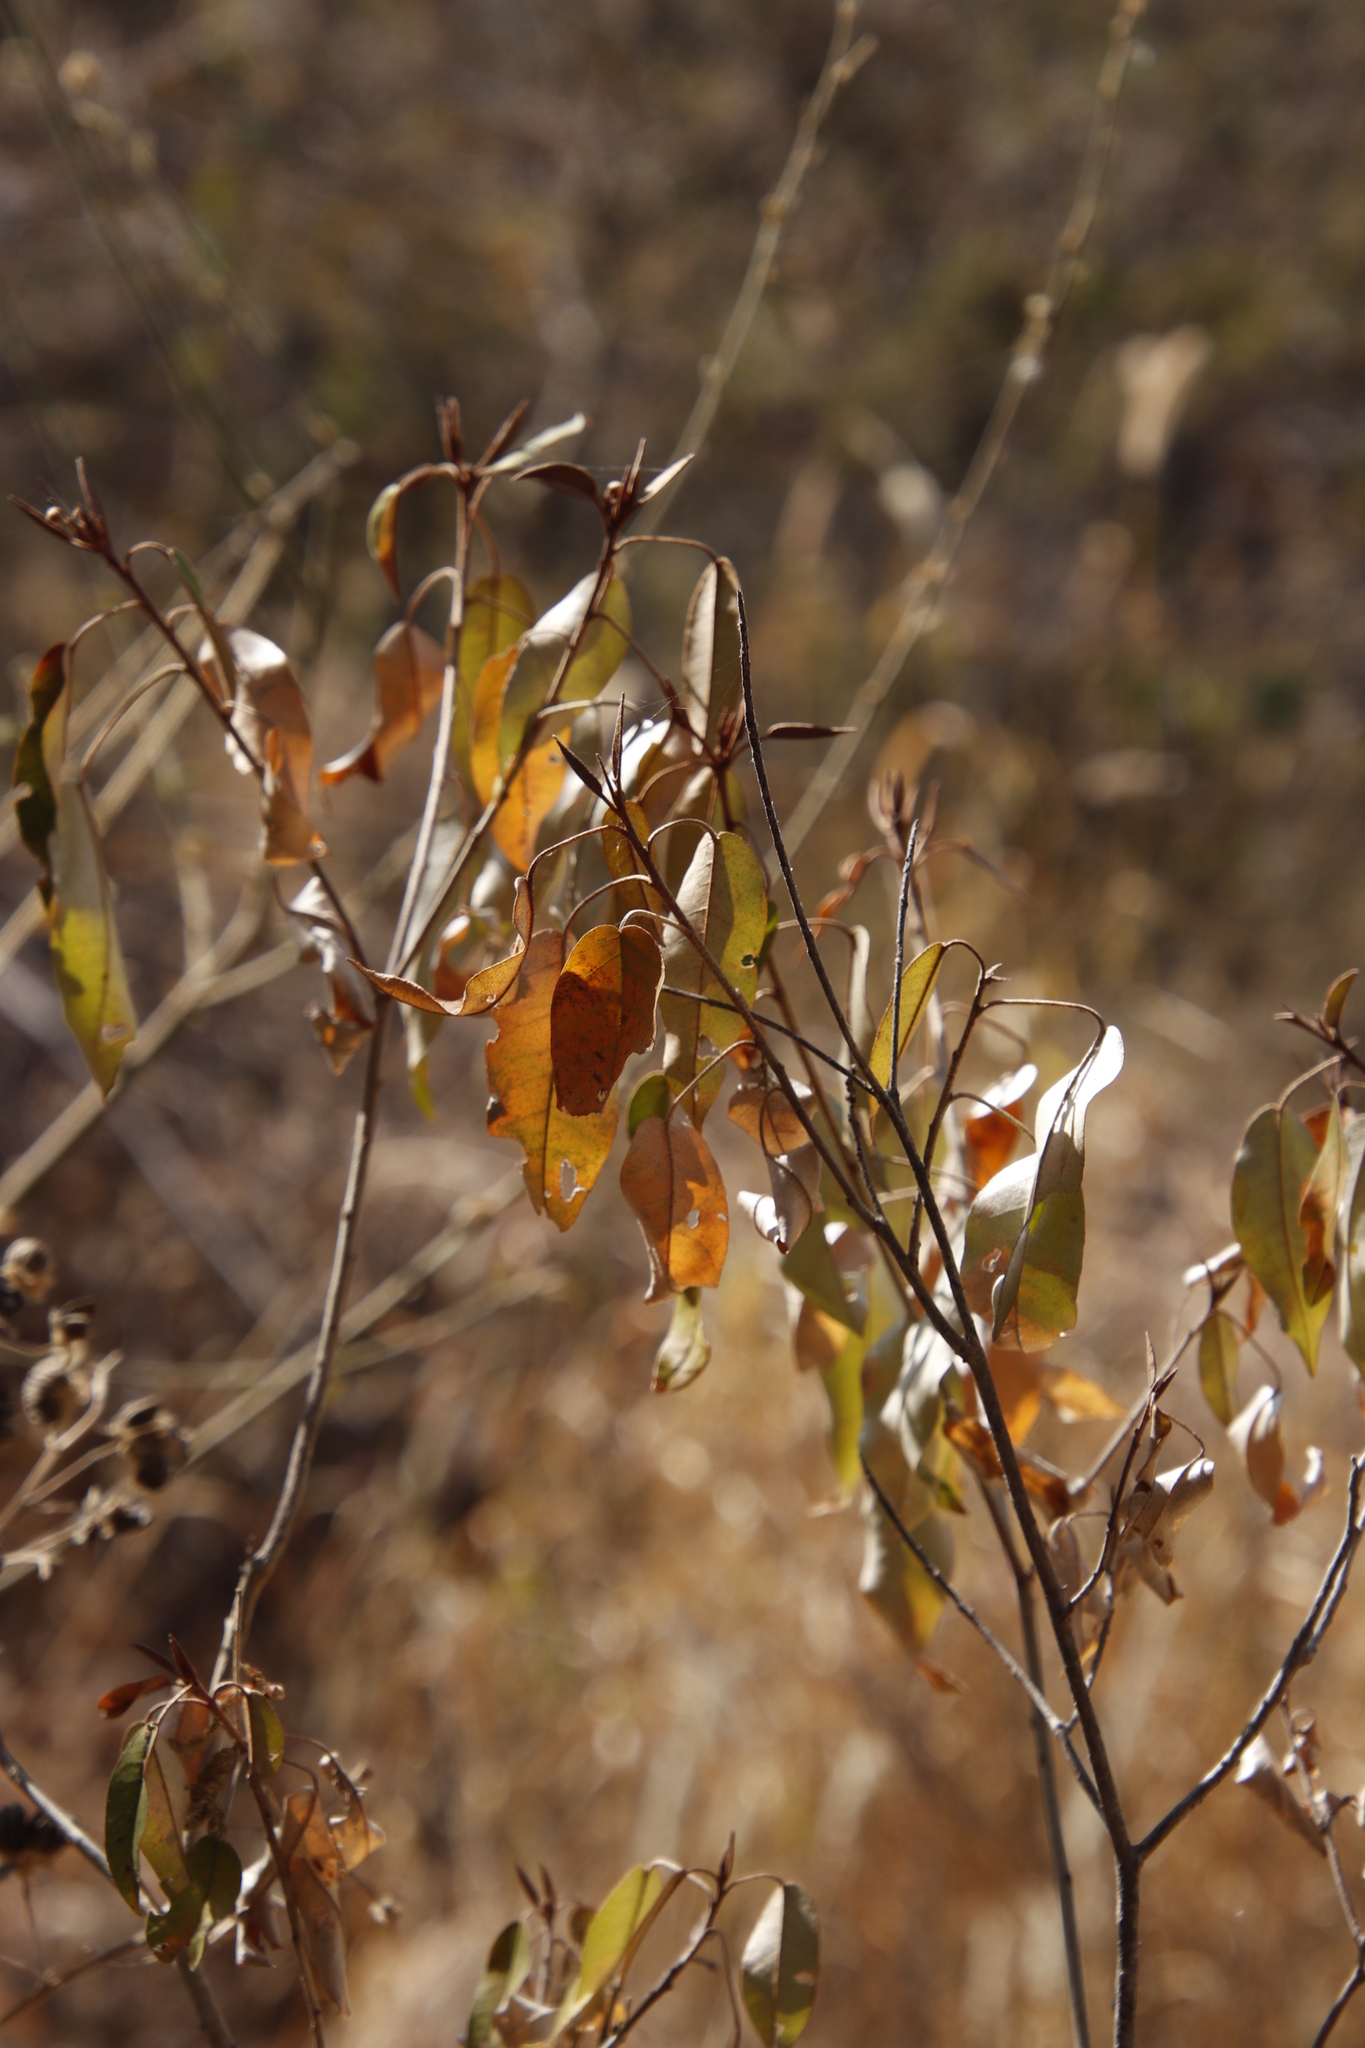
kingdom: Plantae
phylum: Tracheophyta
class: Magnoliopsida
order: Malpighiales
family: Euphorbiaceae
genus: Croton
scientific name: Croton gratissimus
